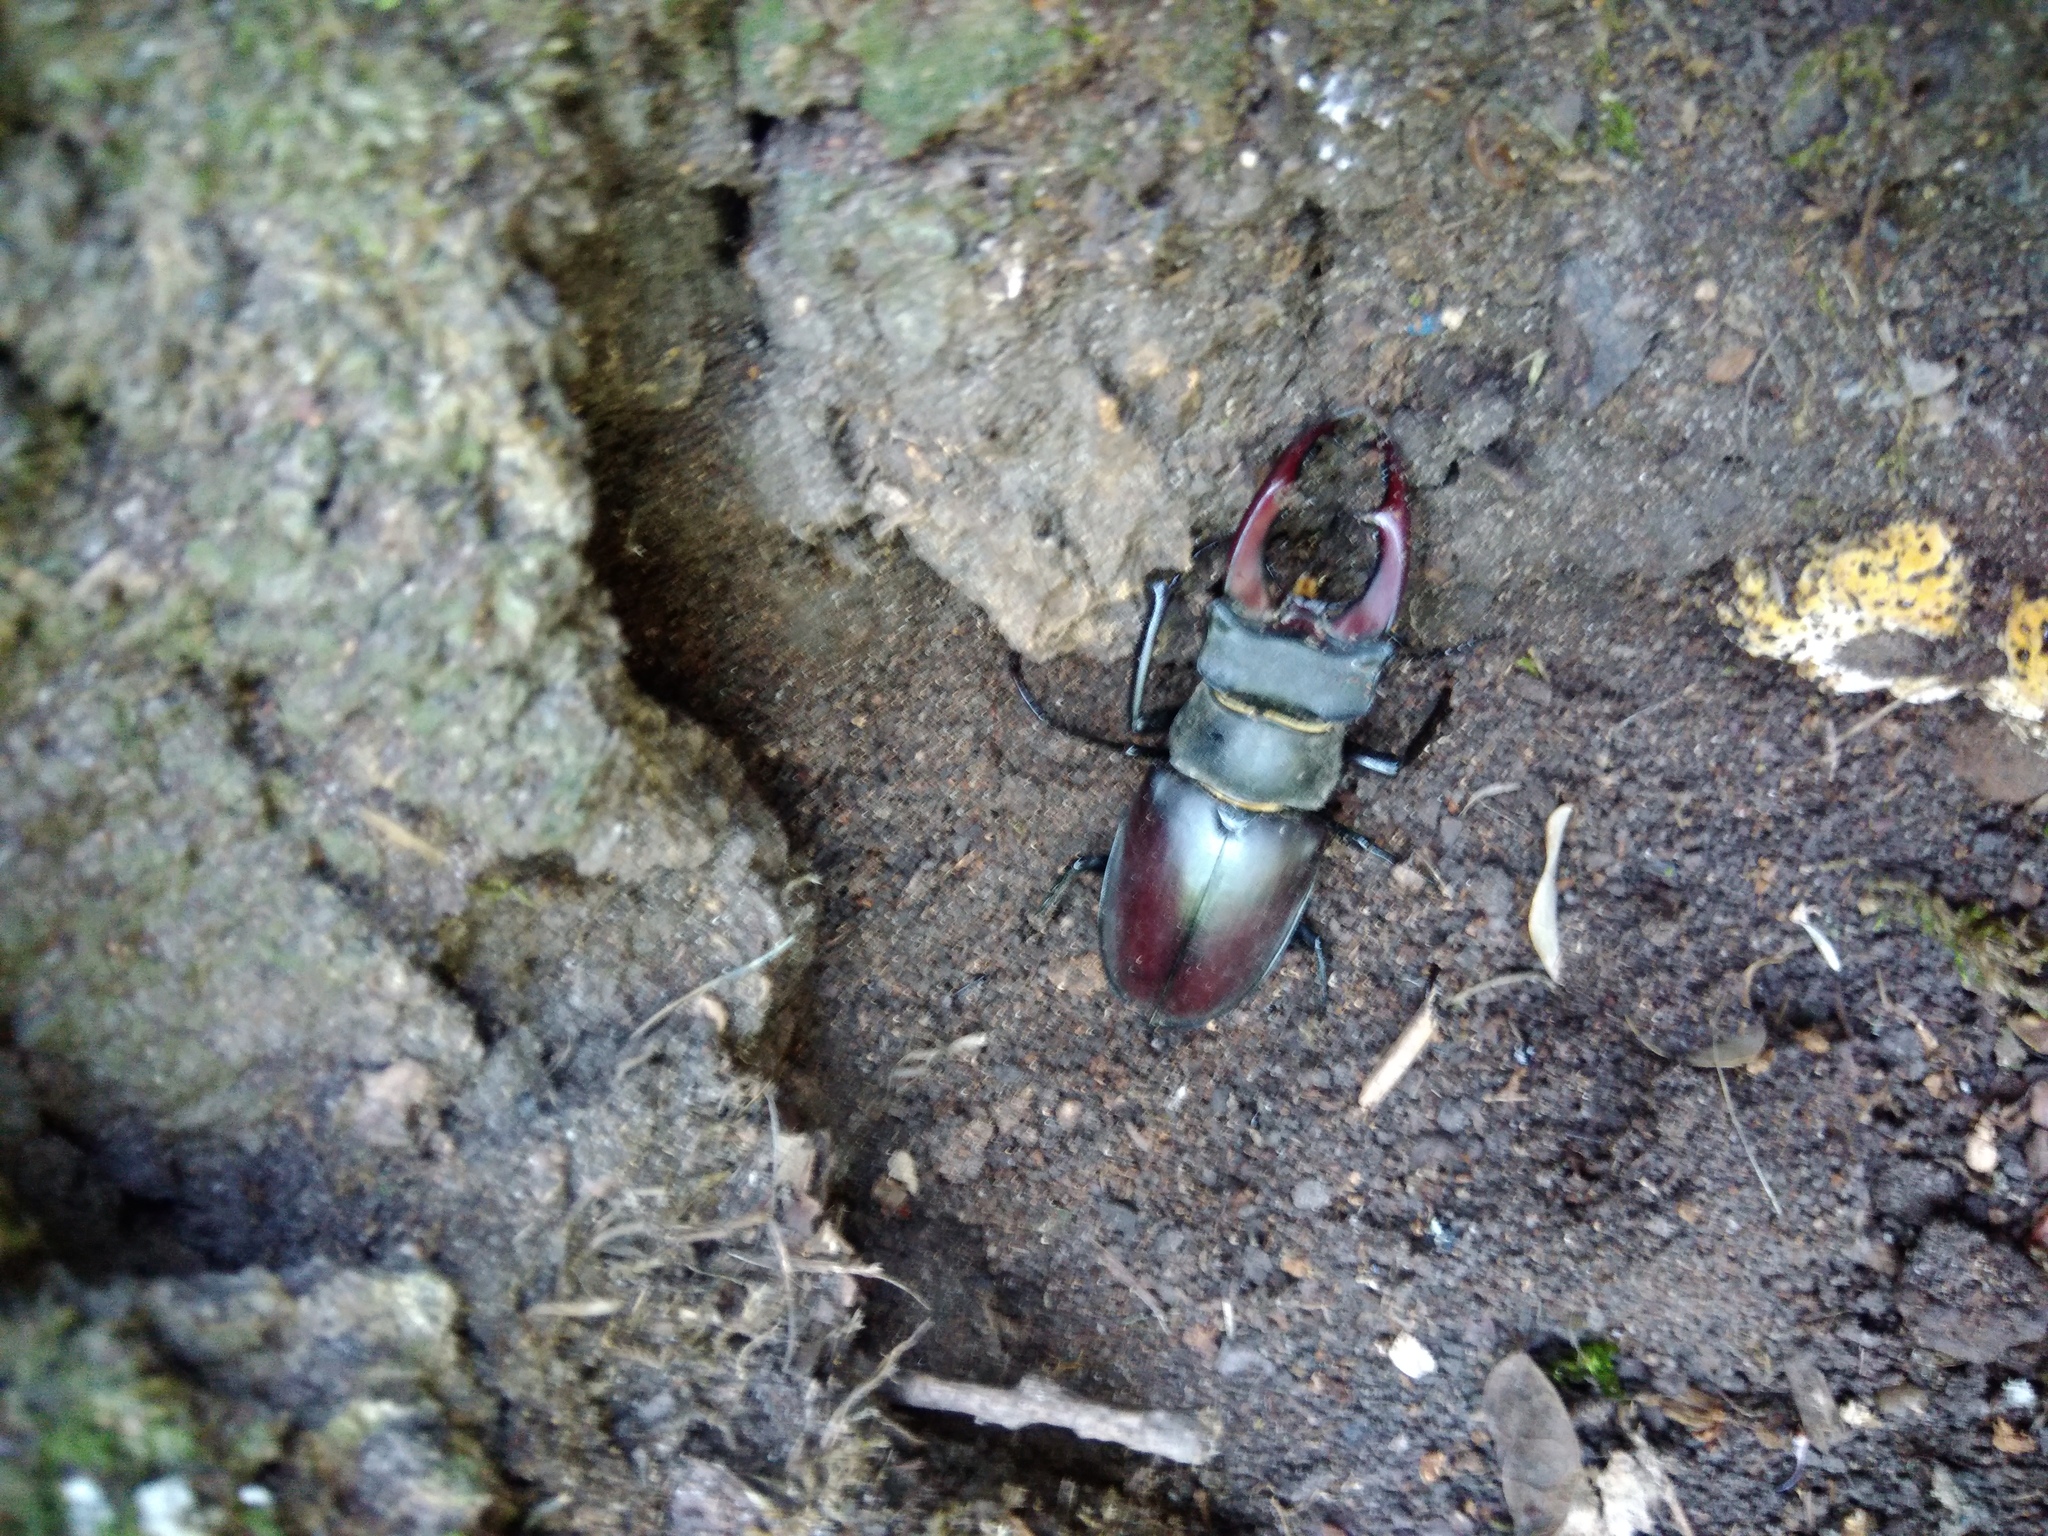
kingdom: Animalia
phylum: Arthropoda
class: Insecta
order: Coleoptera
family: Lucanidae
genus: Lucanus
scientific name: Lucanus cervus
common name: Stag beetle
